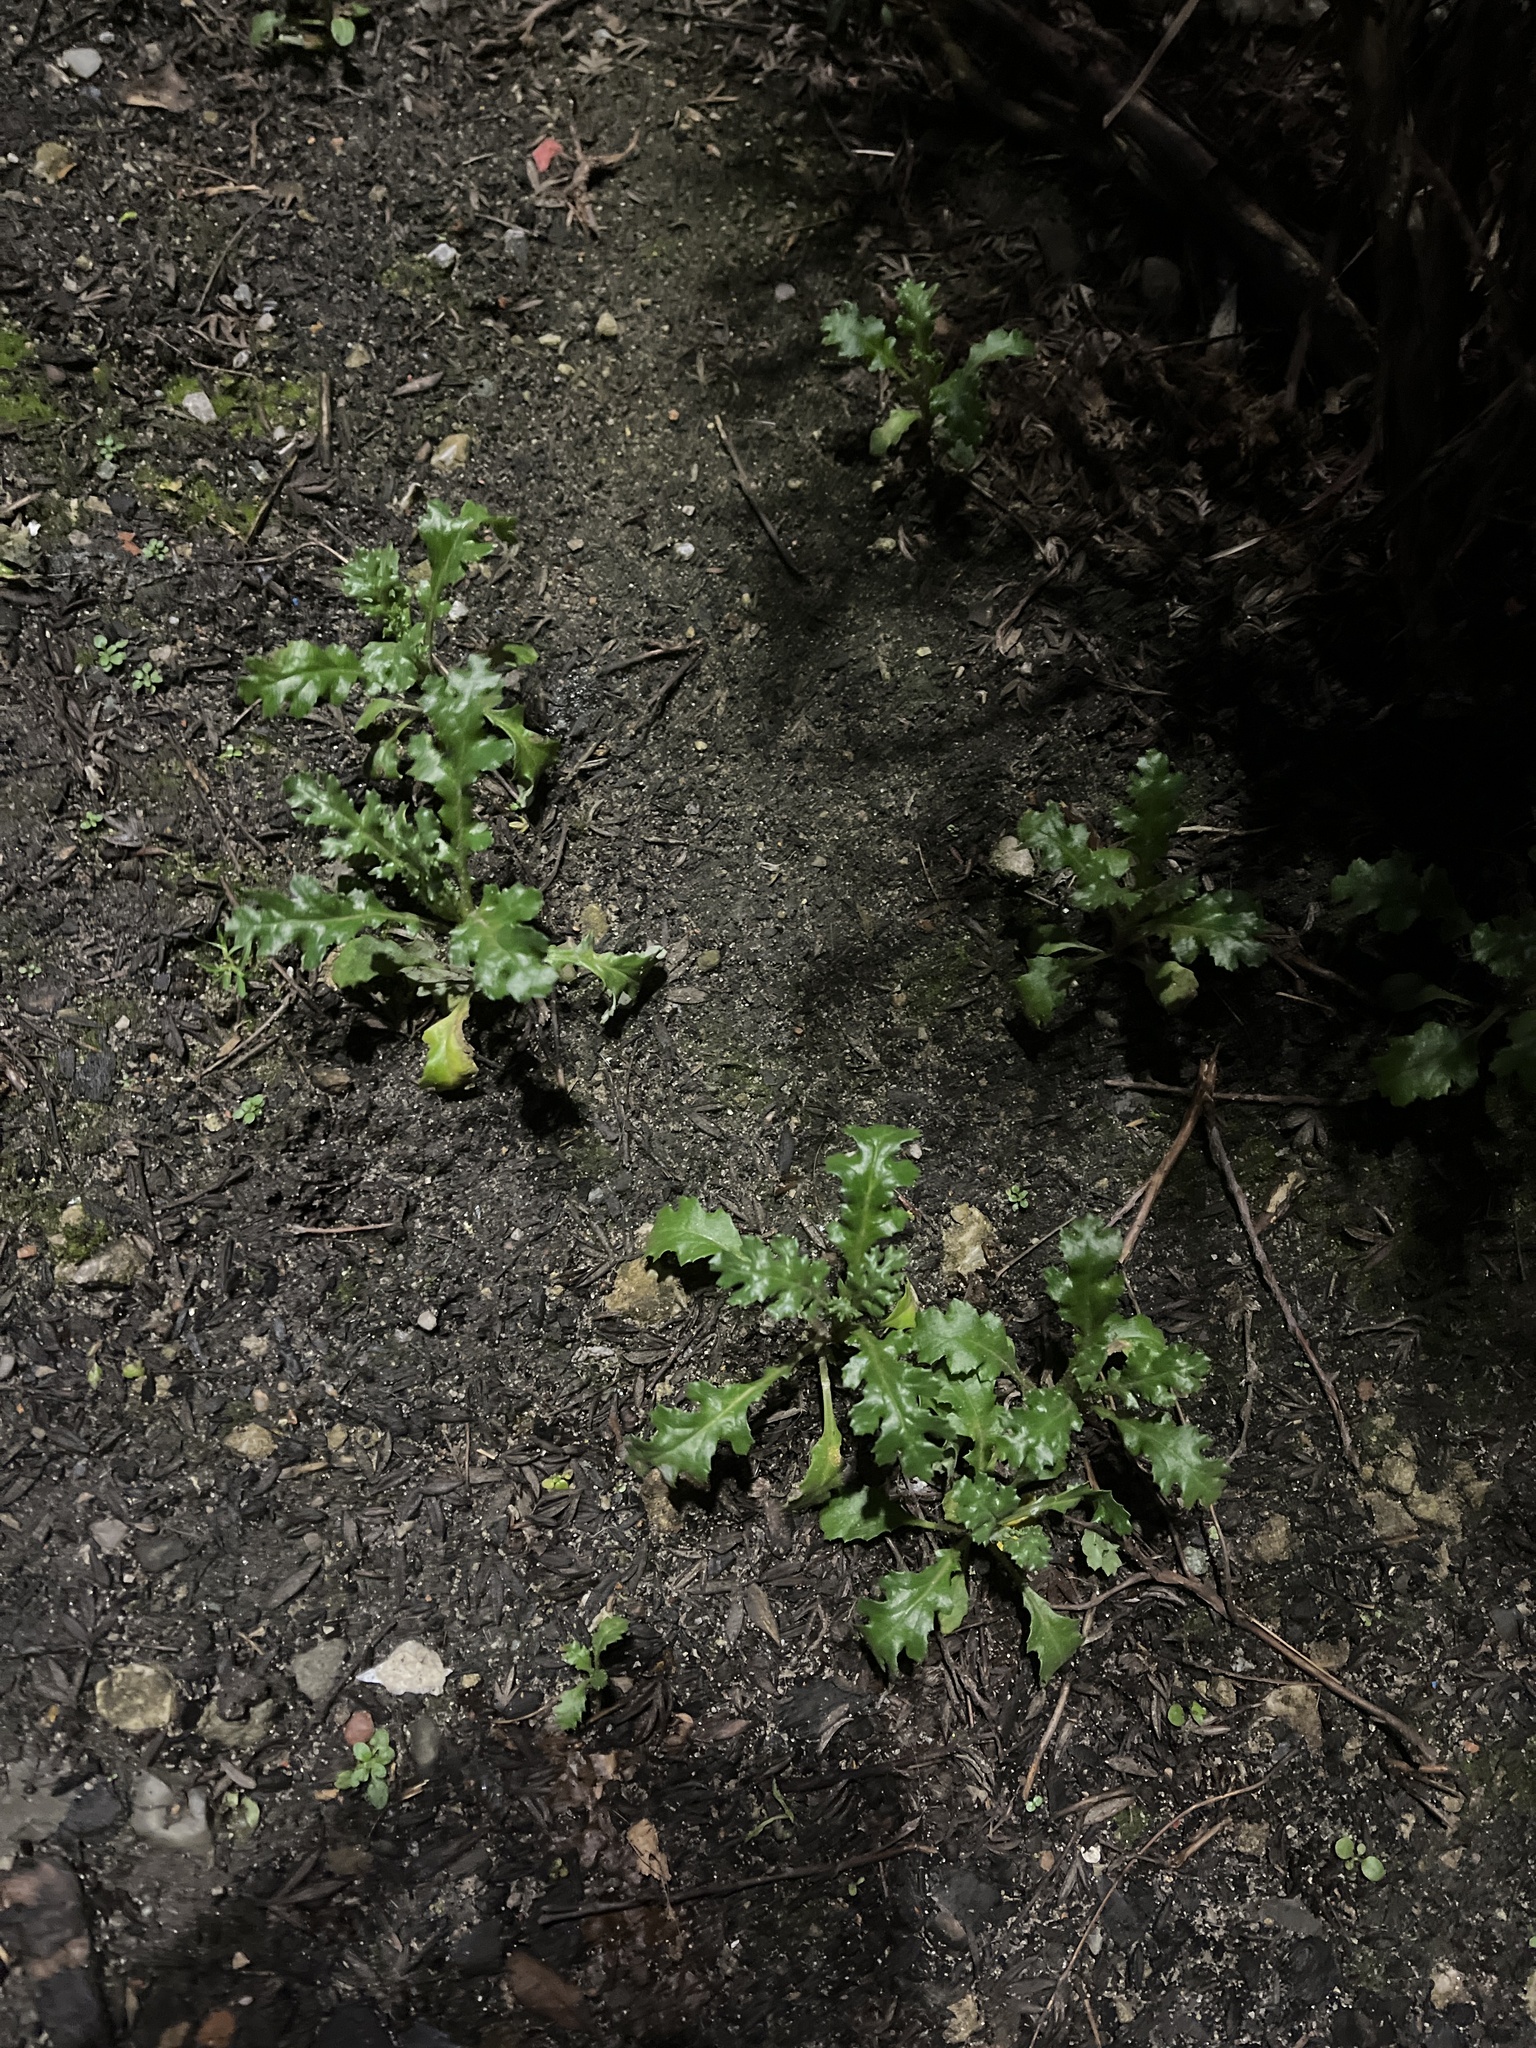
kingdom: Plantae
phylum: Tracheophyta
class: Magnoliopsida
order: Asterales
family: Asteraceae
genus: Senecio
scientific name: Senecio vulgaris
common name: Old-man-in-the-spring
